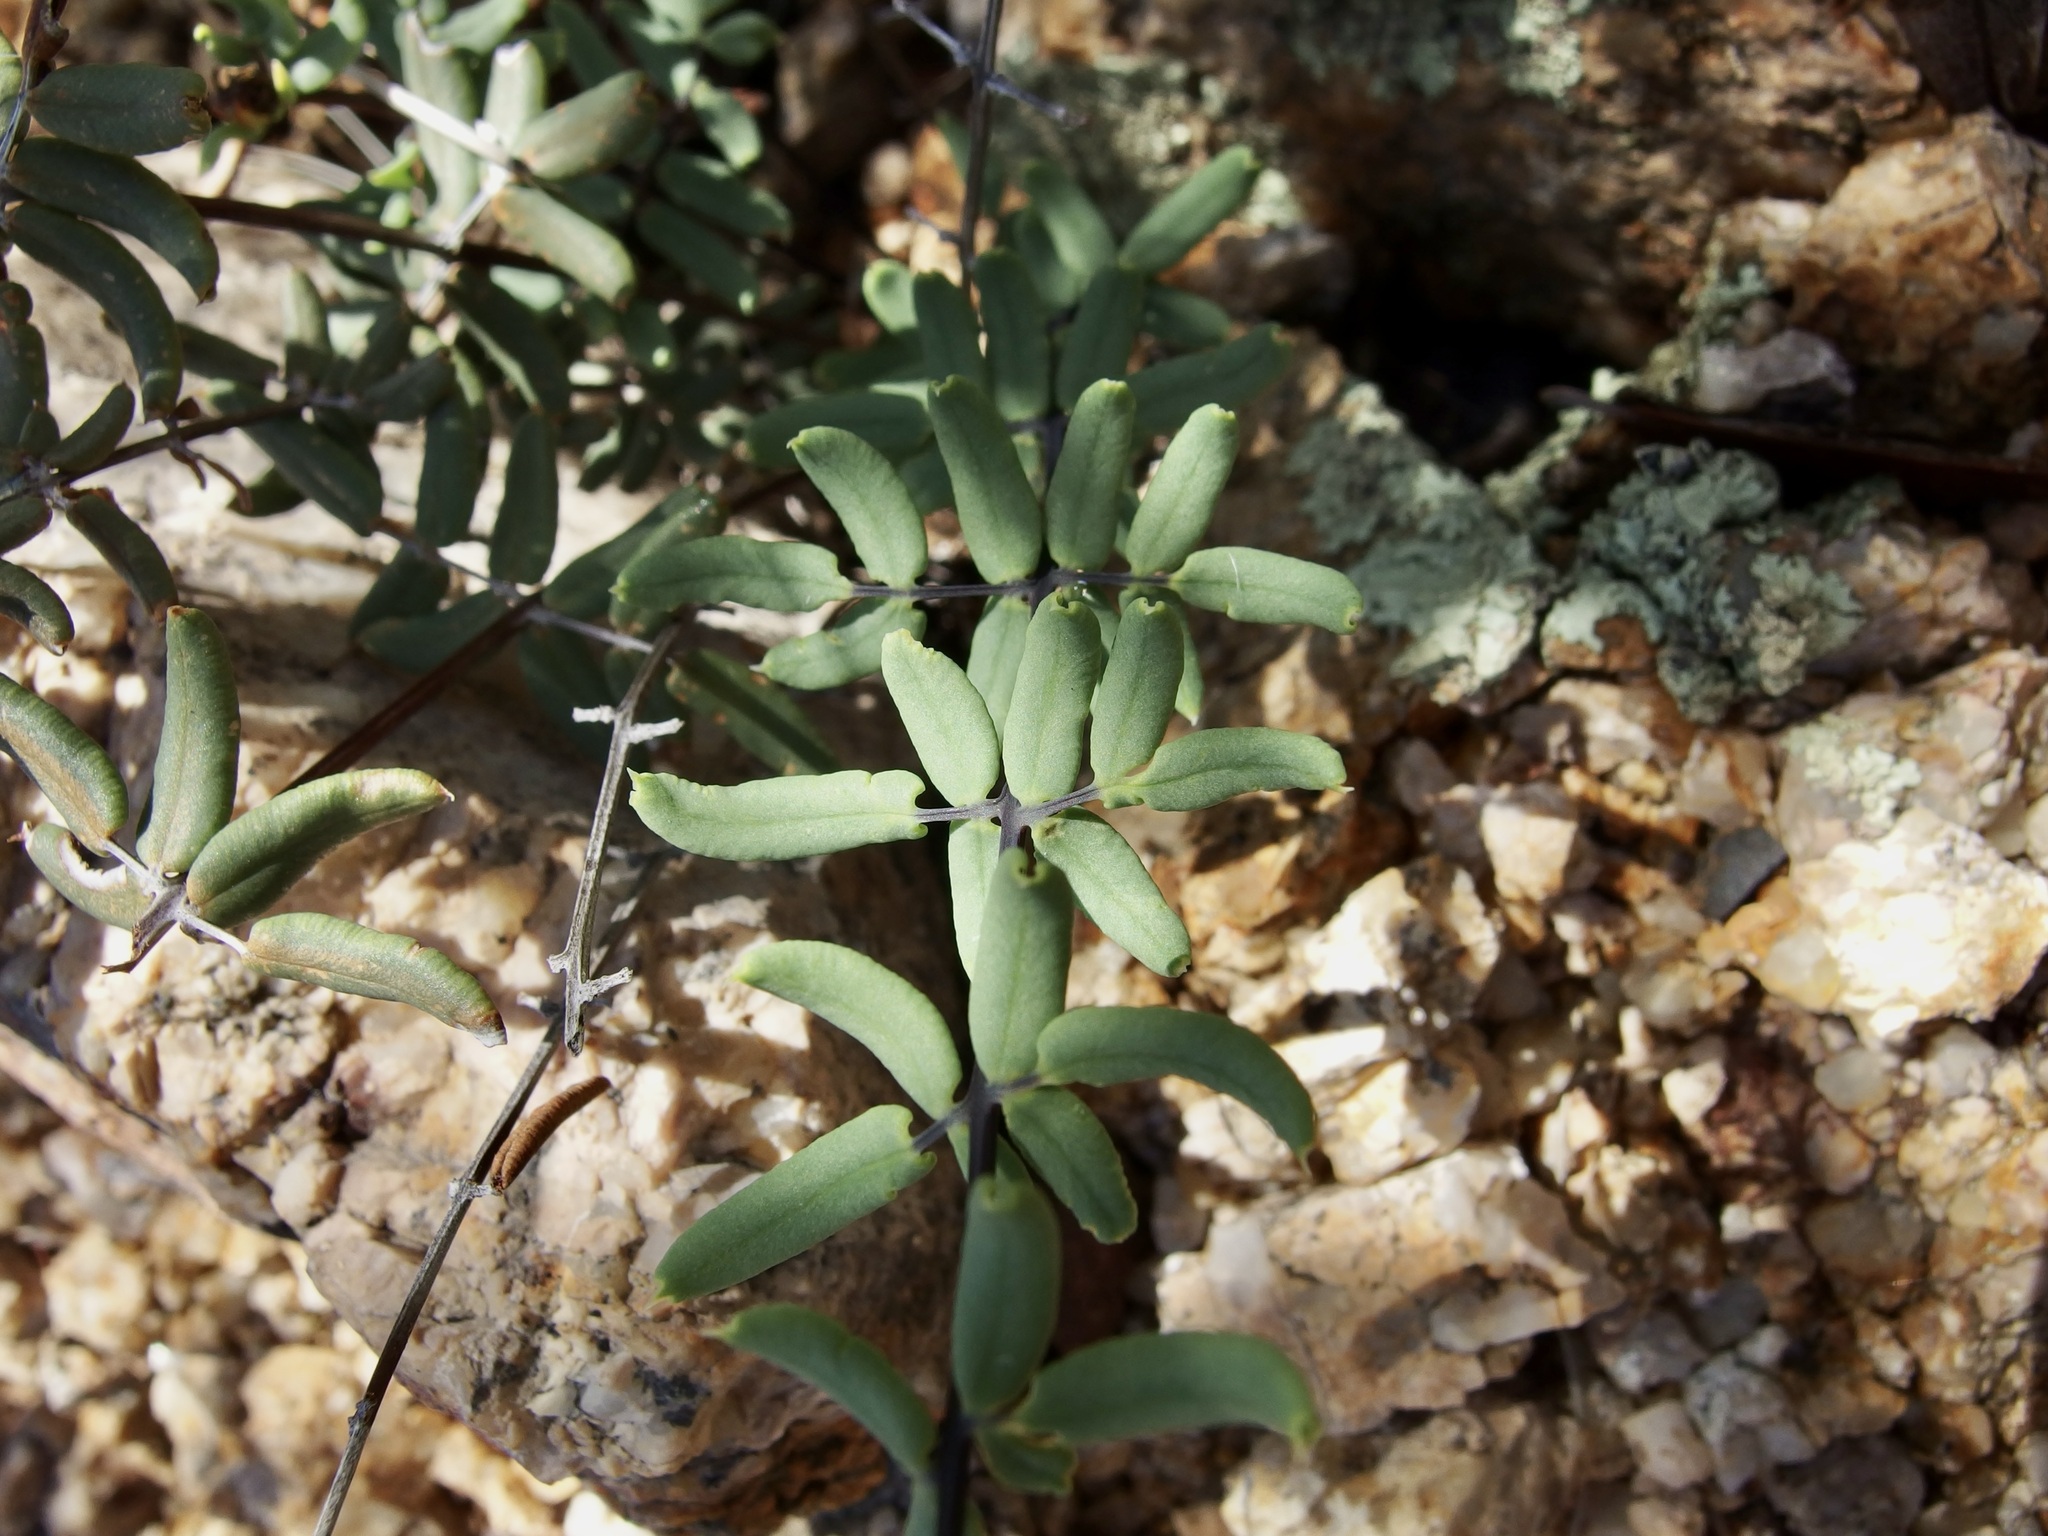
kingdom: Plantae
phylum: Tracheophyta
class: Polypodiopsida
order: Polypodiales
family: Pteridaceae
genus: Pellaea
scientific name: Pellaea wrightiana
